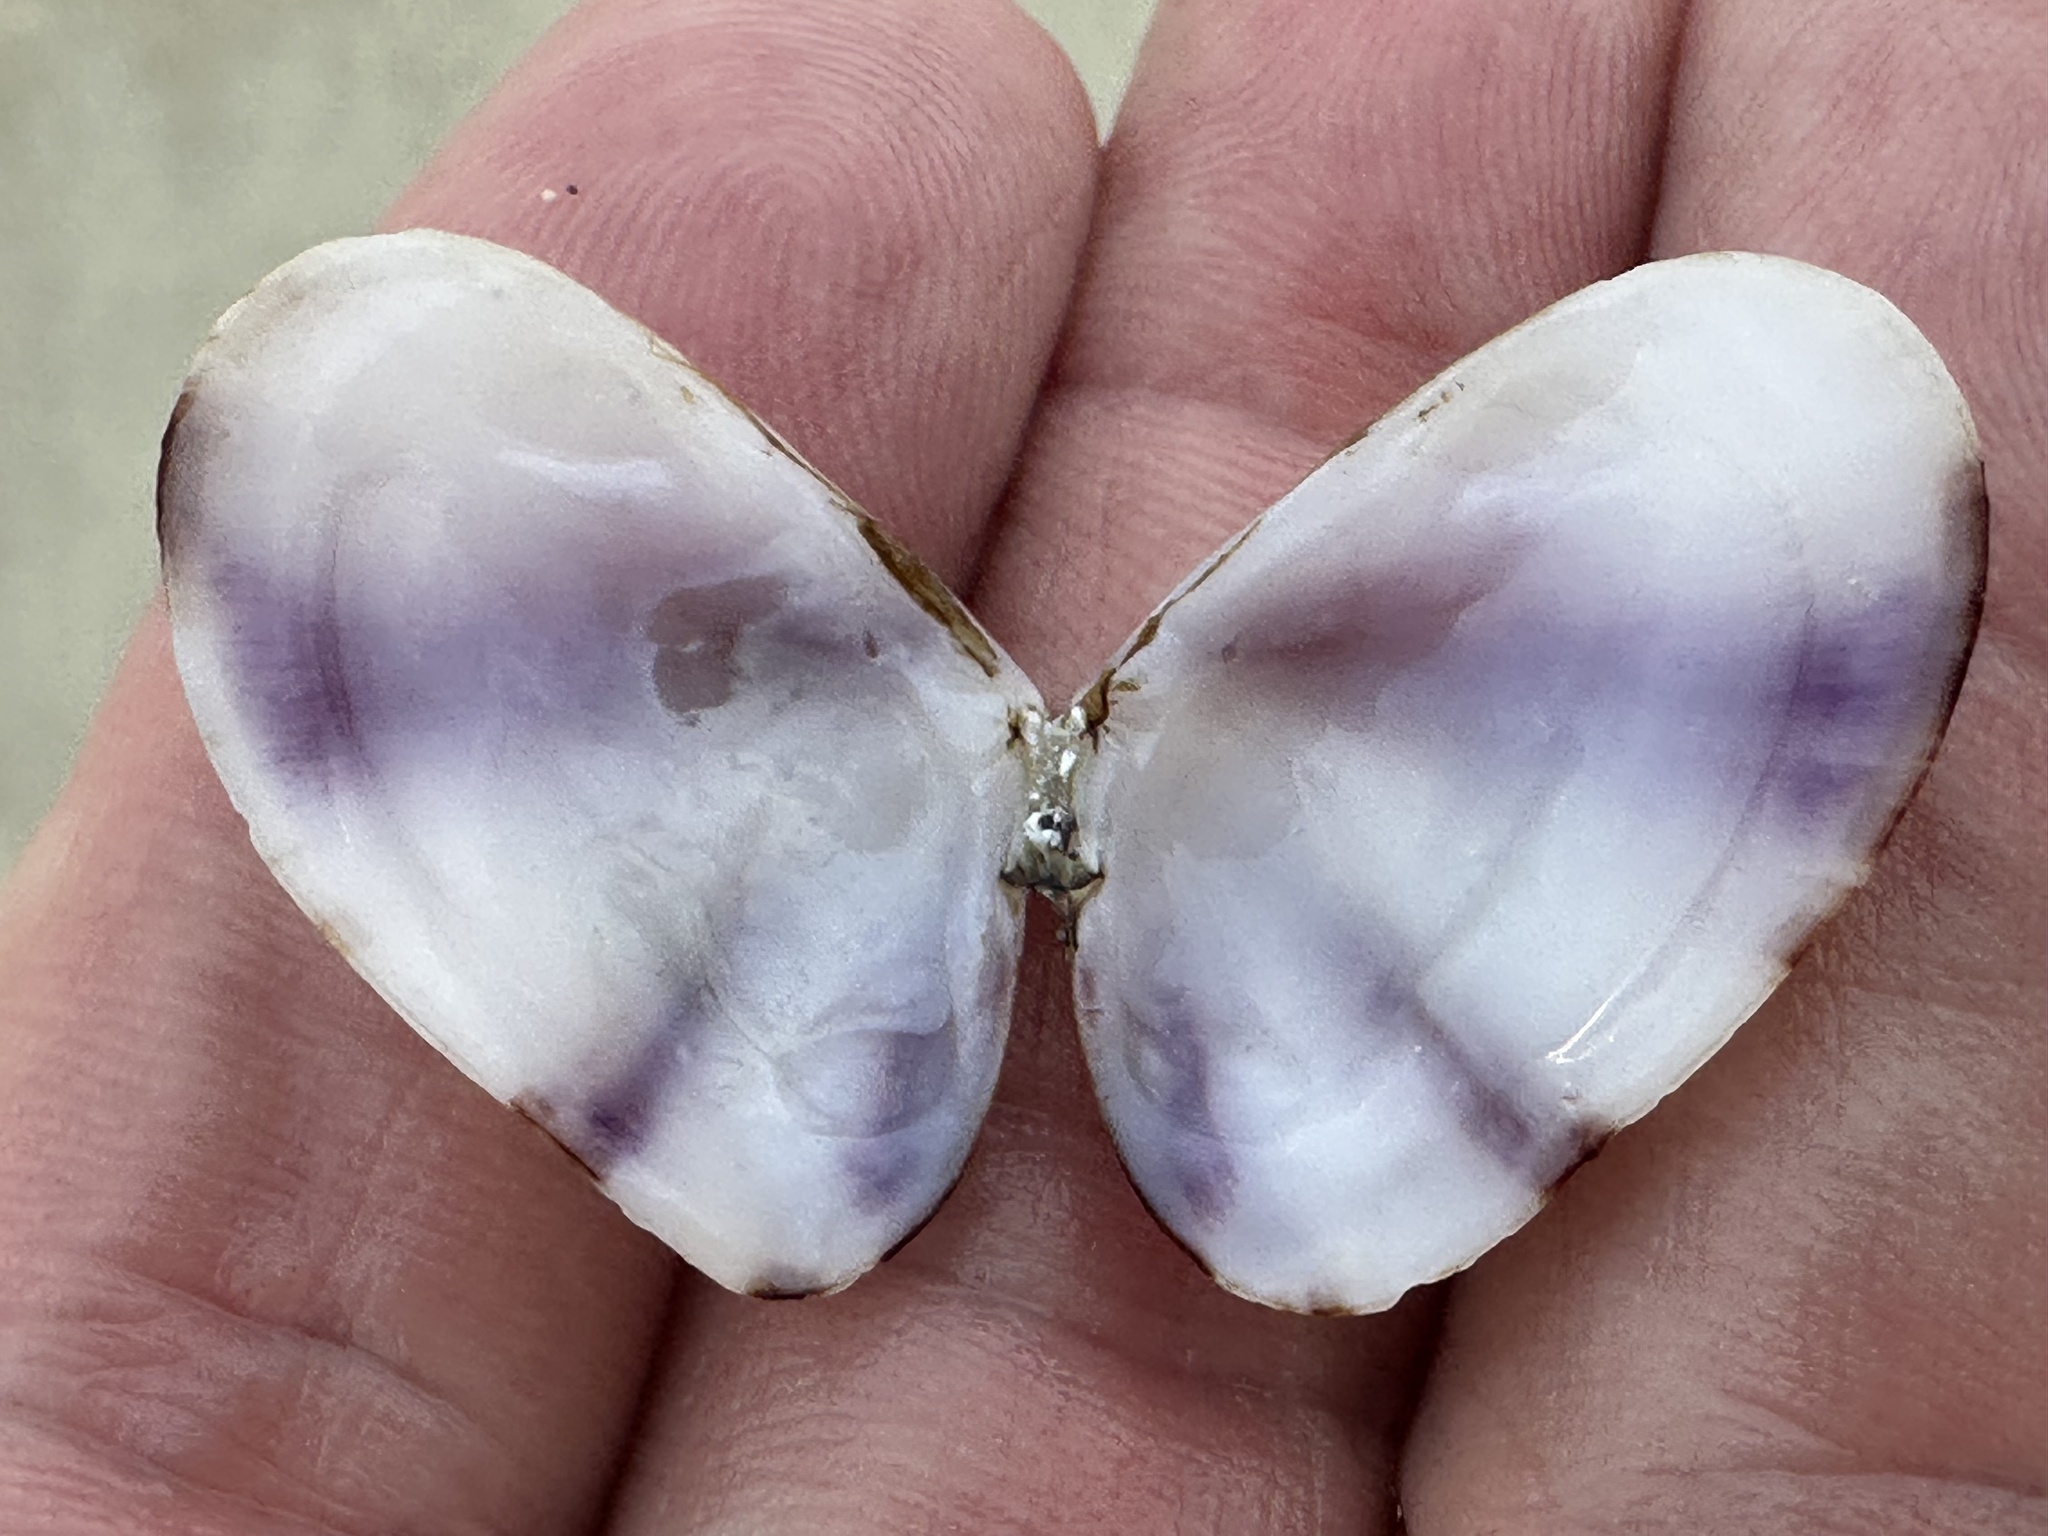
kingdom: Animalia
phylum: Mollusca
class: Bivalvia
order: Cardiida
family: Donacidae
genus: Donax
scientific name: Donax faba
